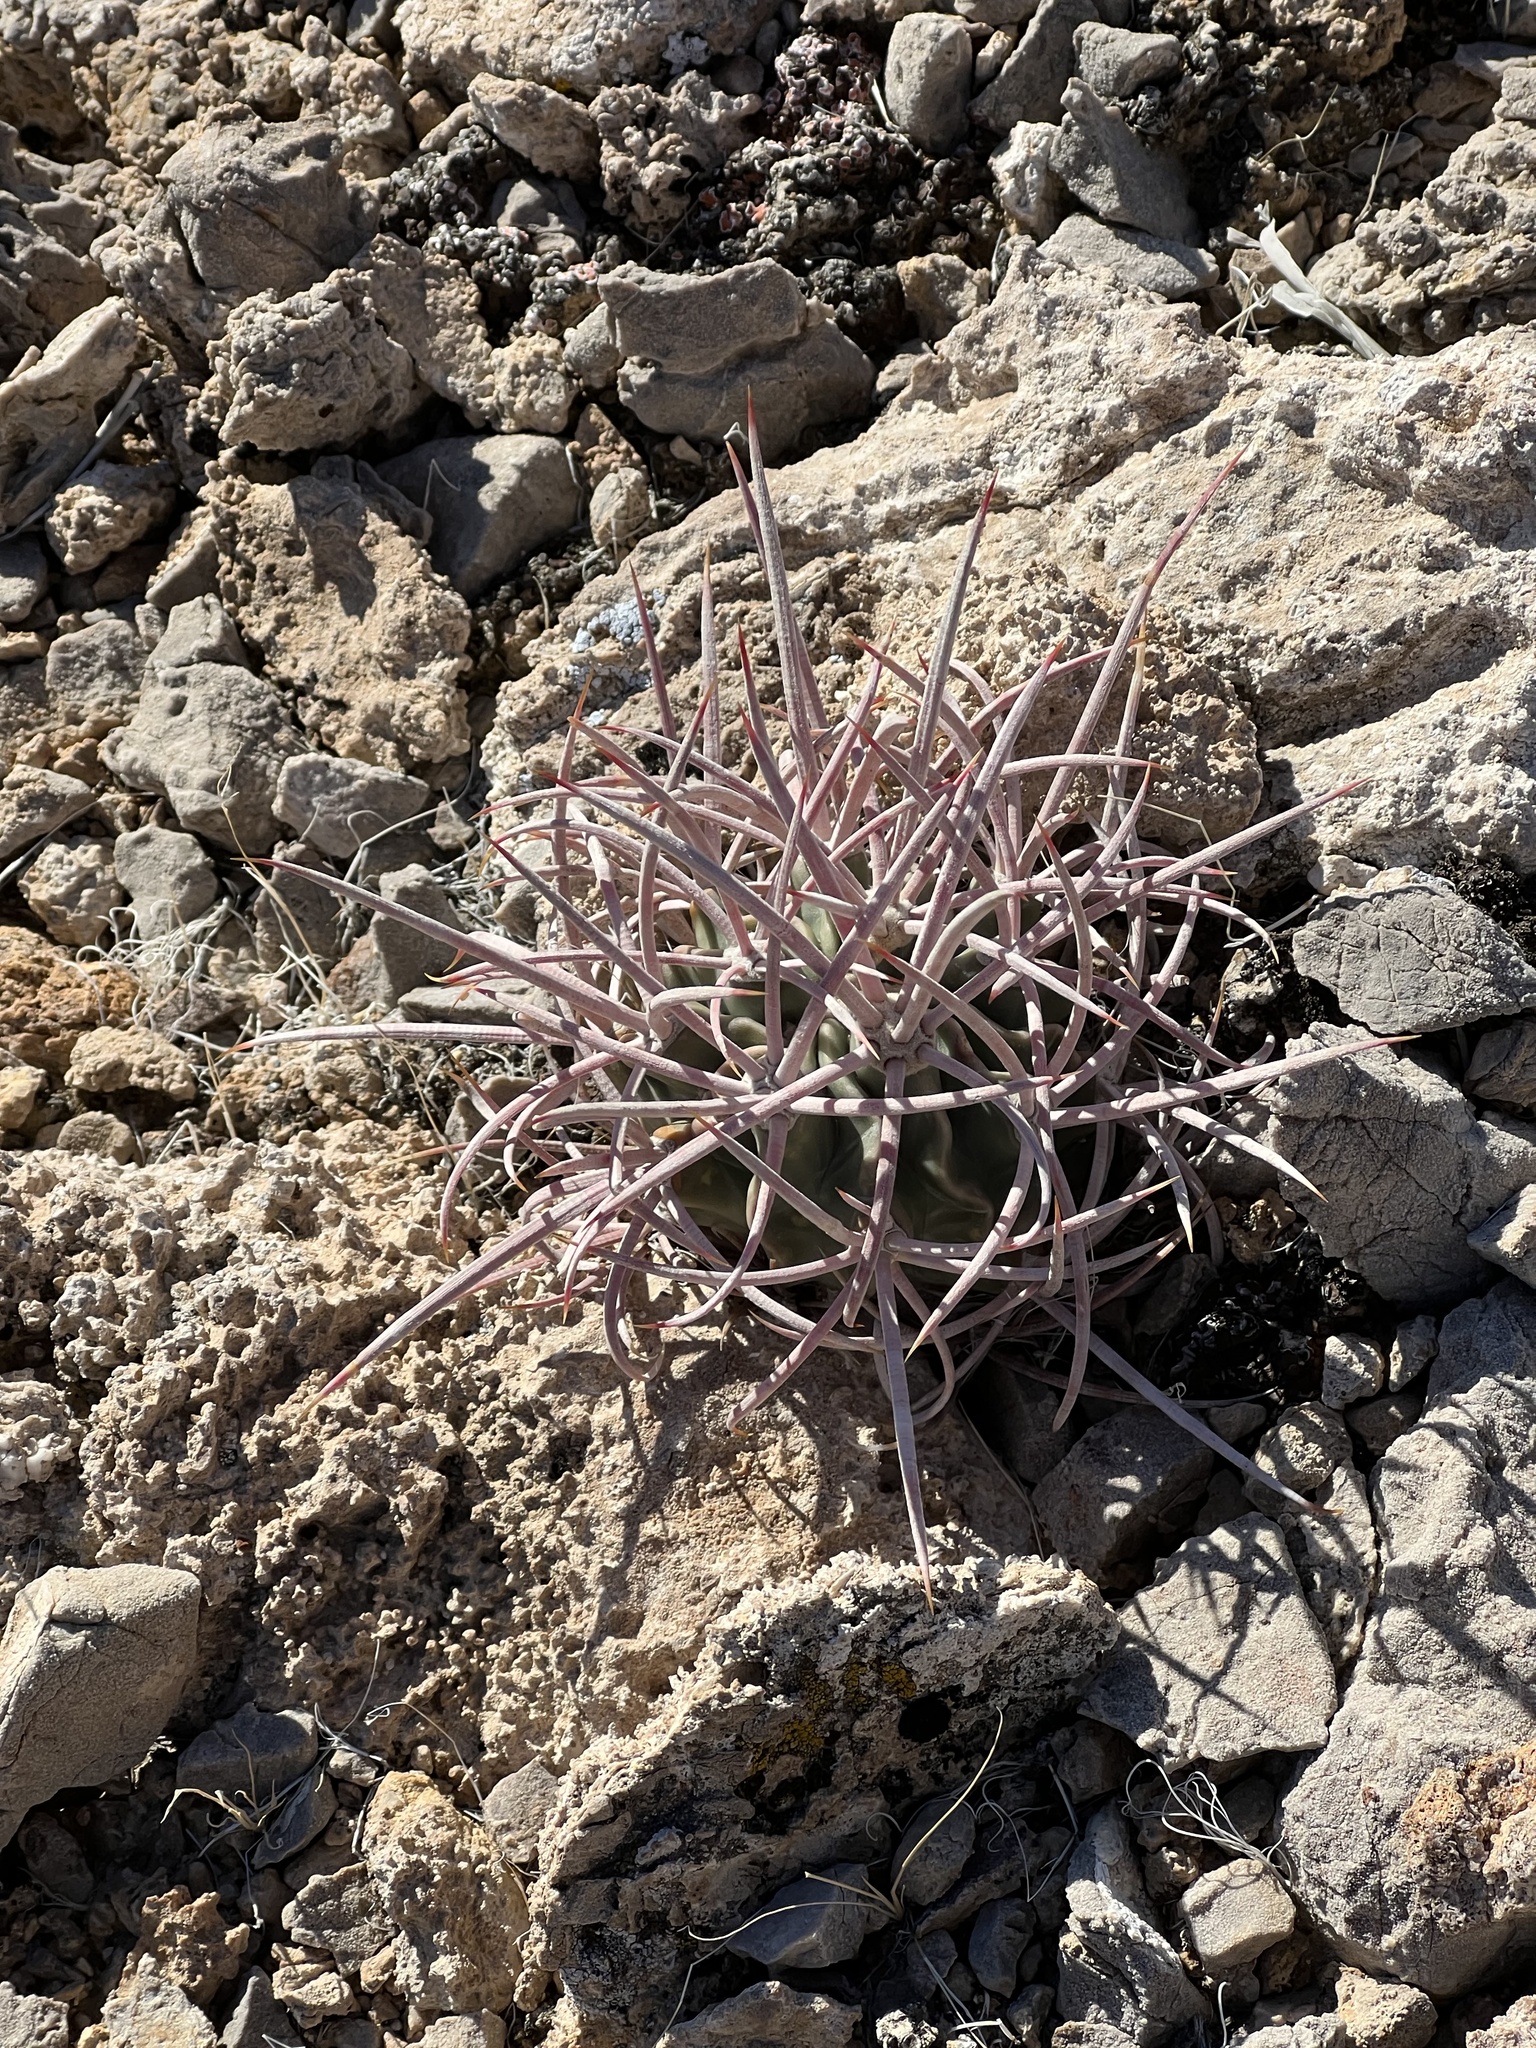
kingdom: Plantae
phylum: Tracheophyta
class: Magnoliopsida
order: Caryophyllales
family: Cactaceae
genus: Echinocactus
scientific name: Echinocactus polycephalus
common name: Cottontop cactus
